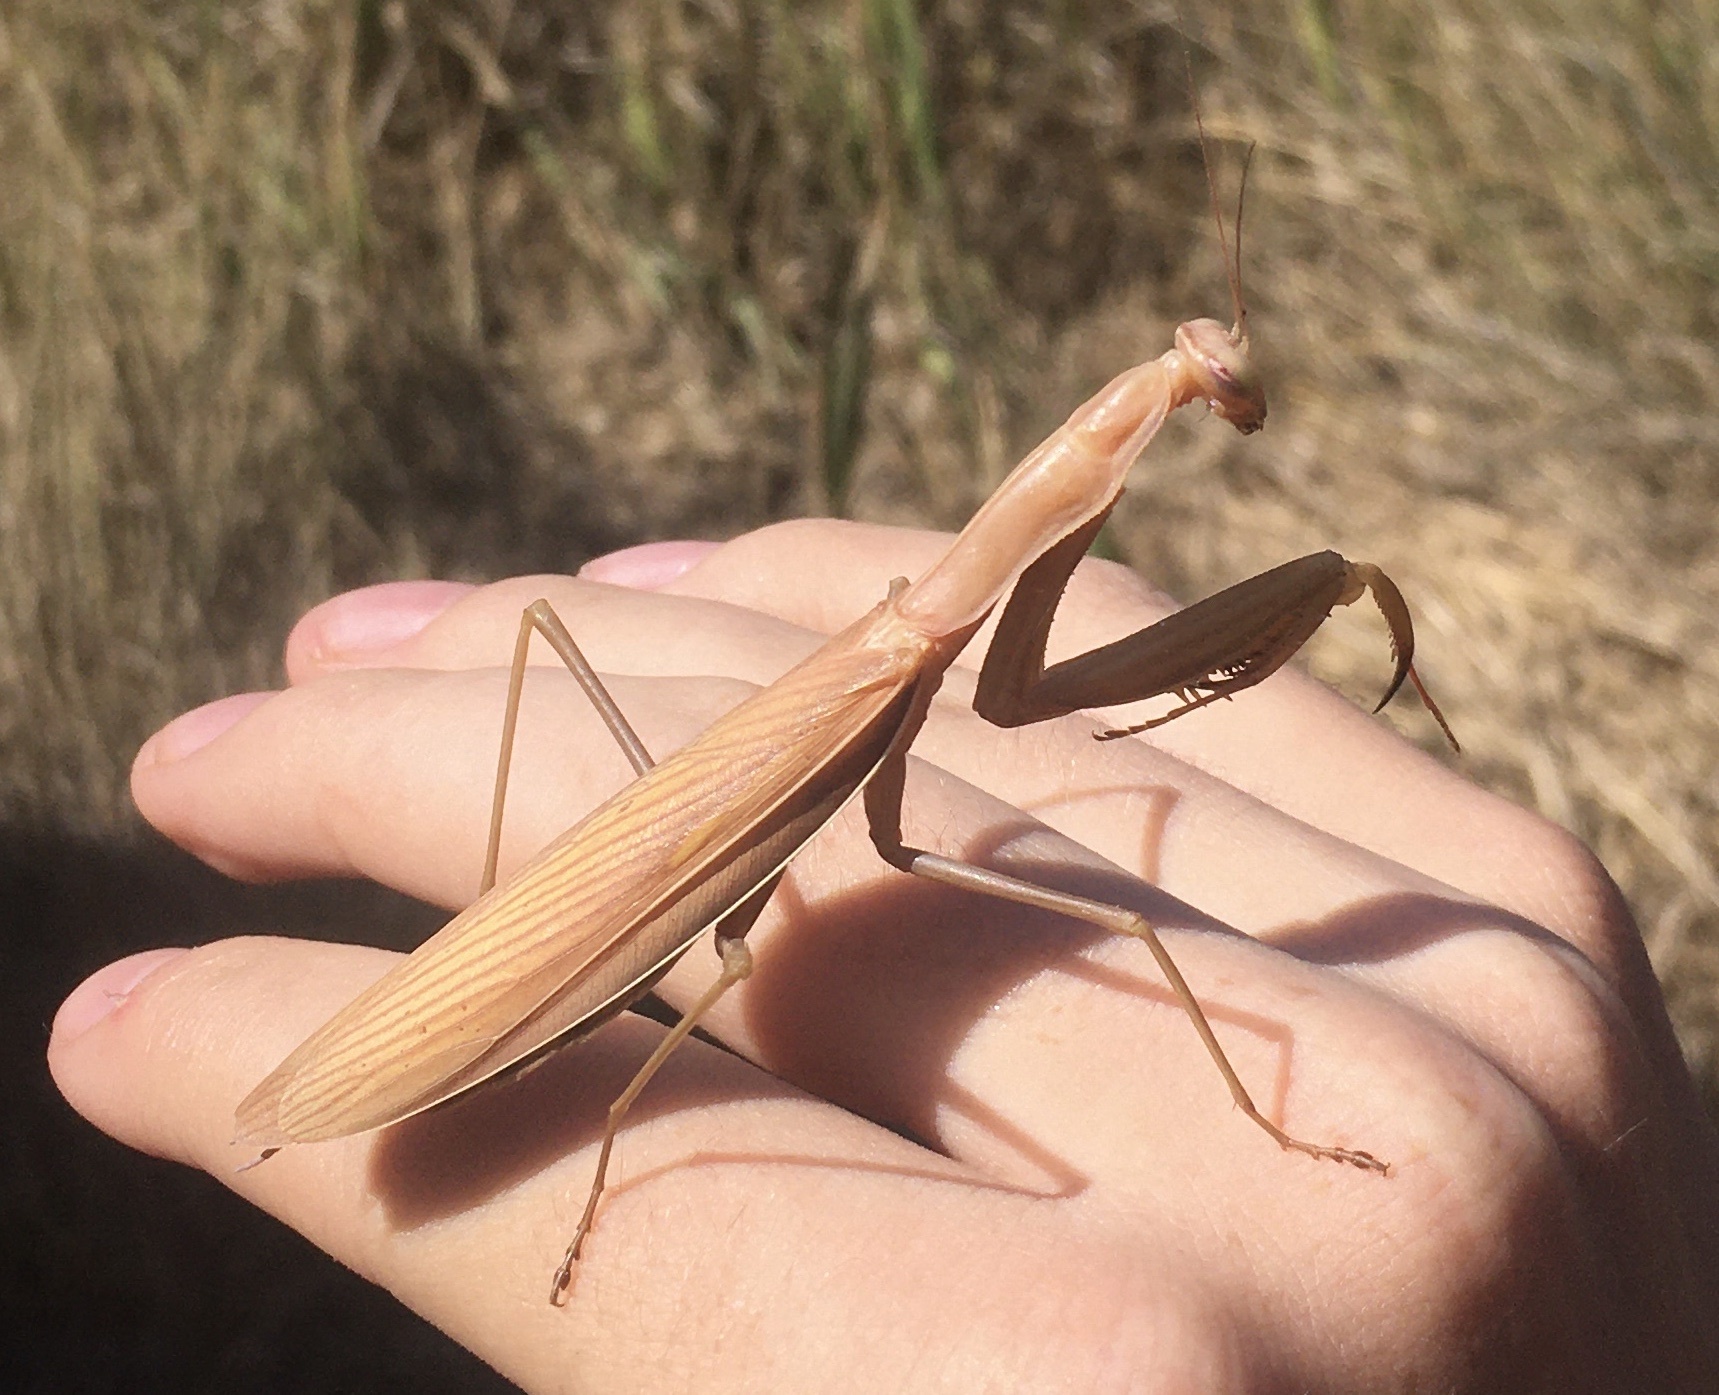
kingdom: Animalia
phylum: Arthropoda
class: Insecta
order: Mantodea
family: Mantidae
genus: Mantis
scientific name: Mantis religiosa
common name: Praying mantis
